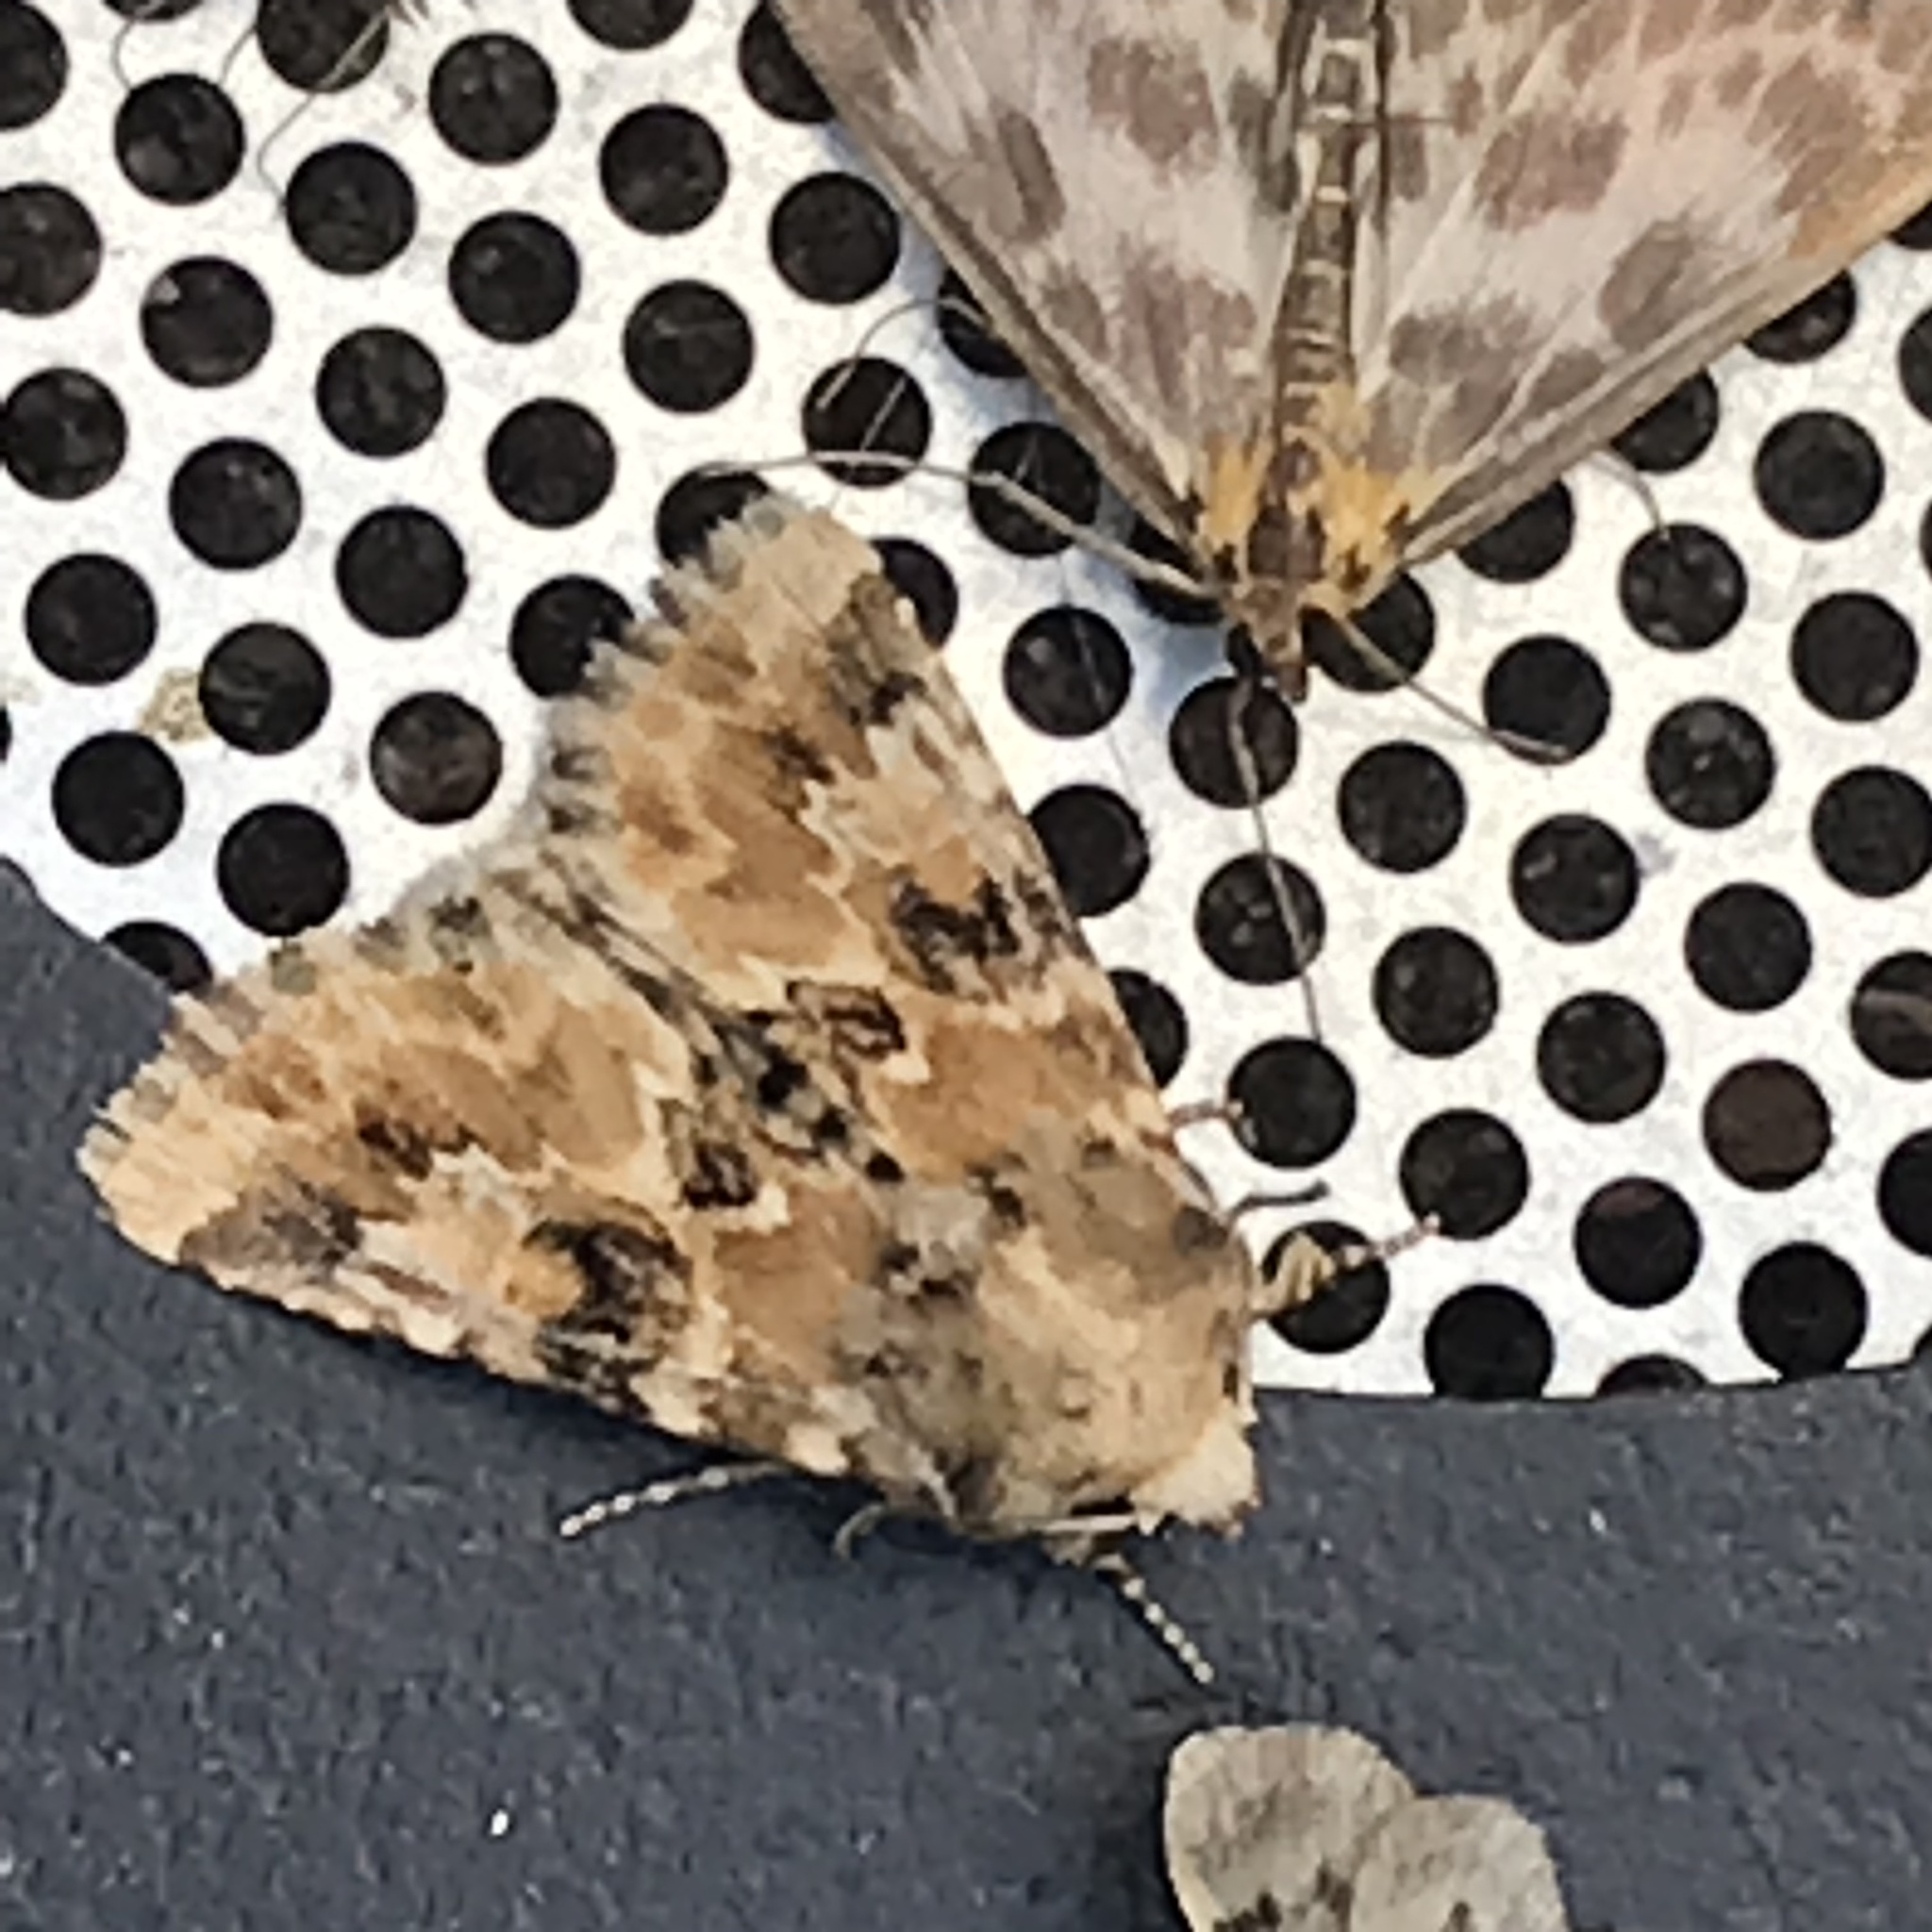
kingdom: Animalia
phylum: Arthropoda
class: Insecta
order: Lepidoptera
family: Noctuidae
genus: Eremobia
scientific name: Eremobia ochroleuca
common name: Dusky sallow
